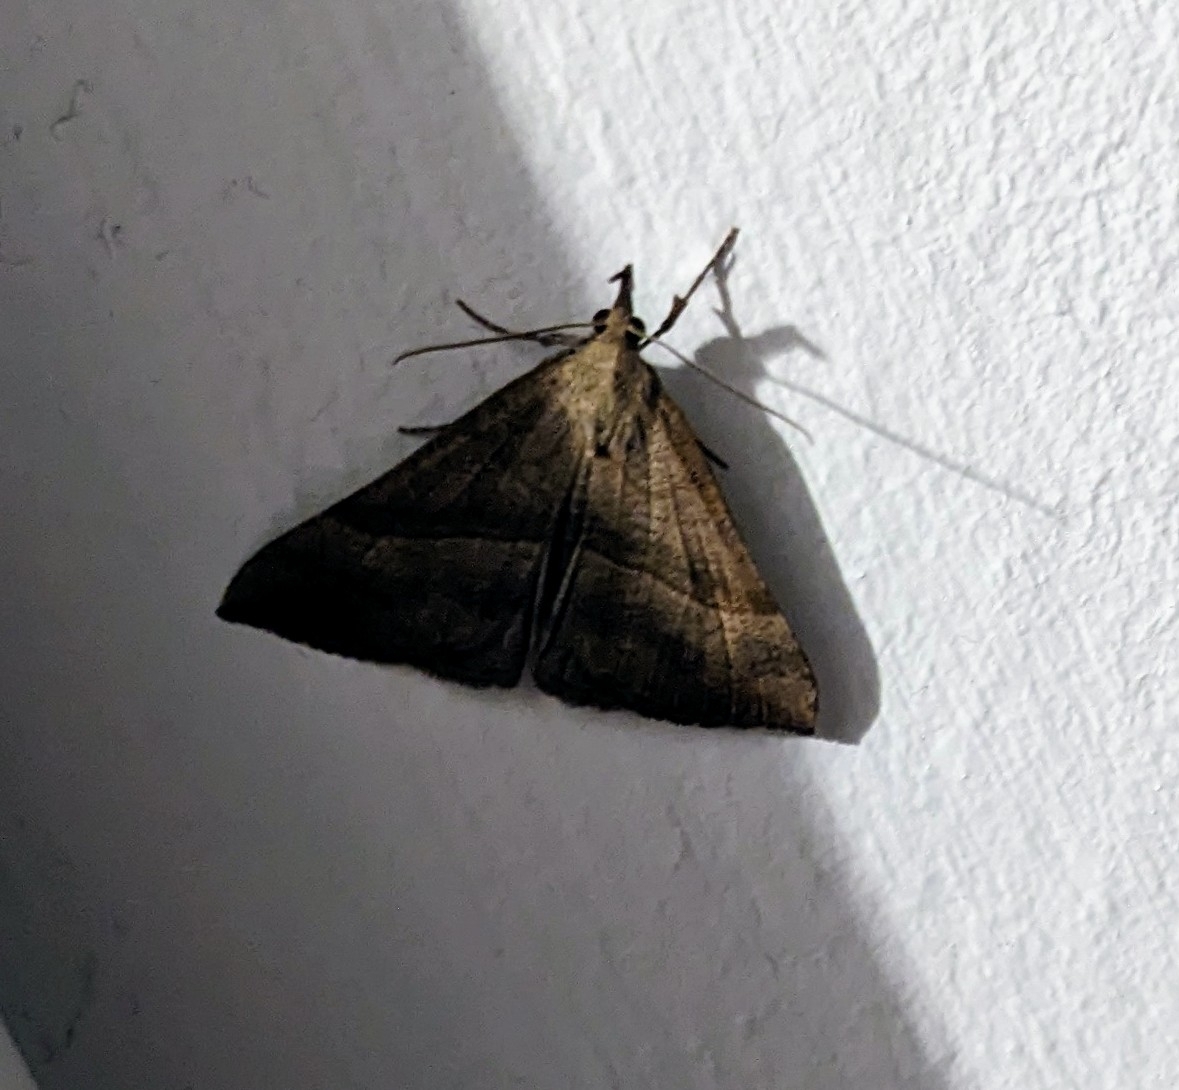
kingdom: Animalia
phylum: Arthropoda
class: Insecta
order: Lepidoptera
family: Erebidae
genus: Hypena
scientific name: Hypena proboscidalis
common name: Snout
